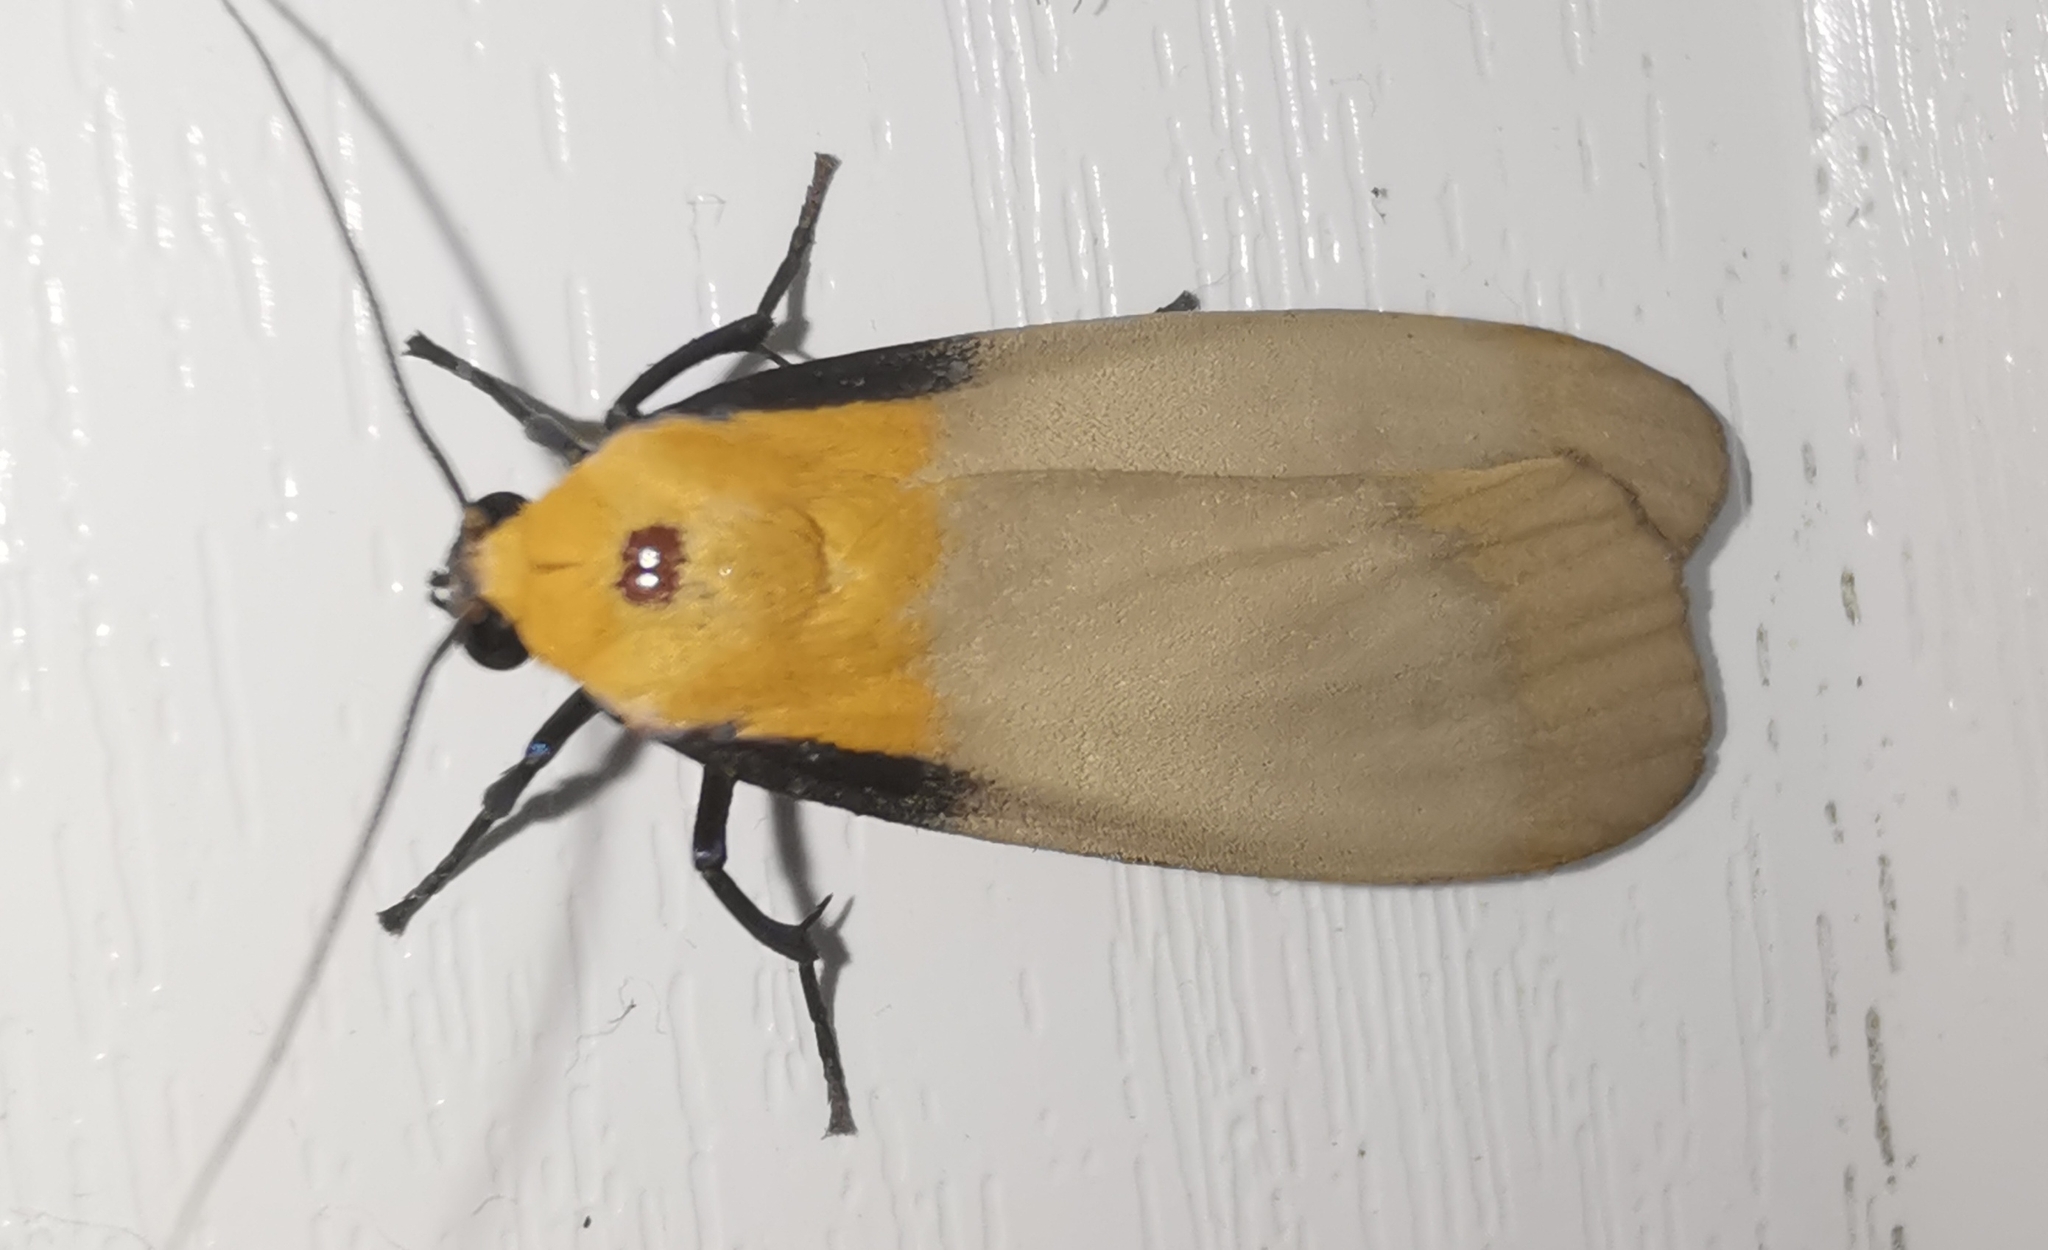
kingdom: Animalia
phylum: Arthropoda
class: Insecta
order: Lepidoptera
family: Erebidae
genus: Lithosia
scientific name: Lithosia quadra
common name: Four-spotted footman
